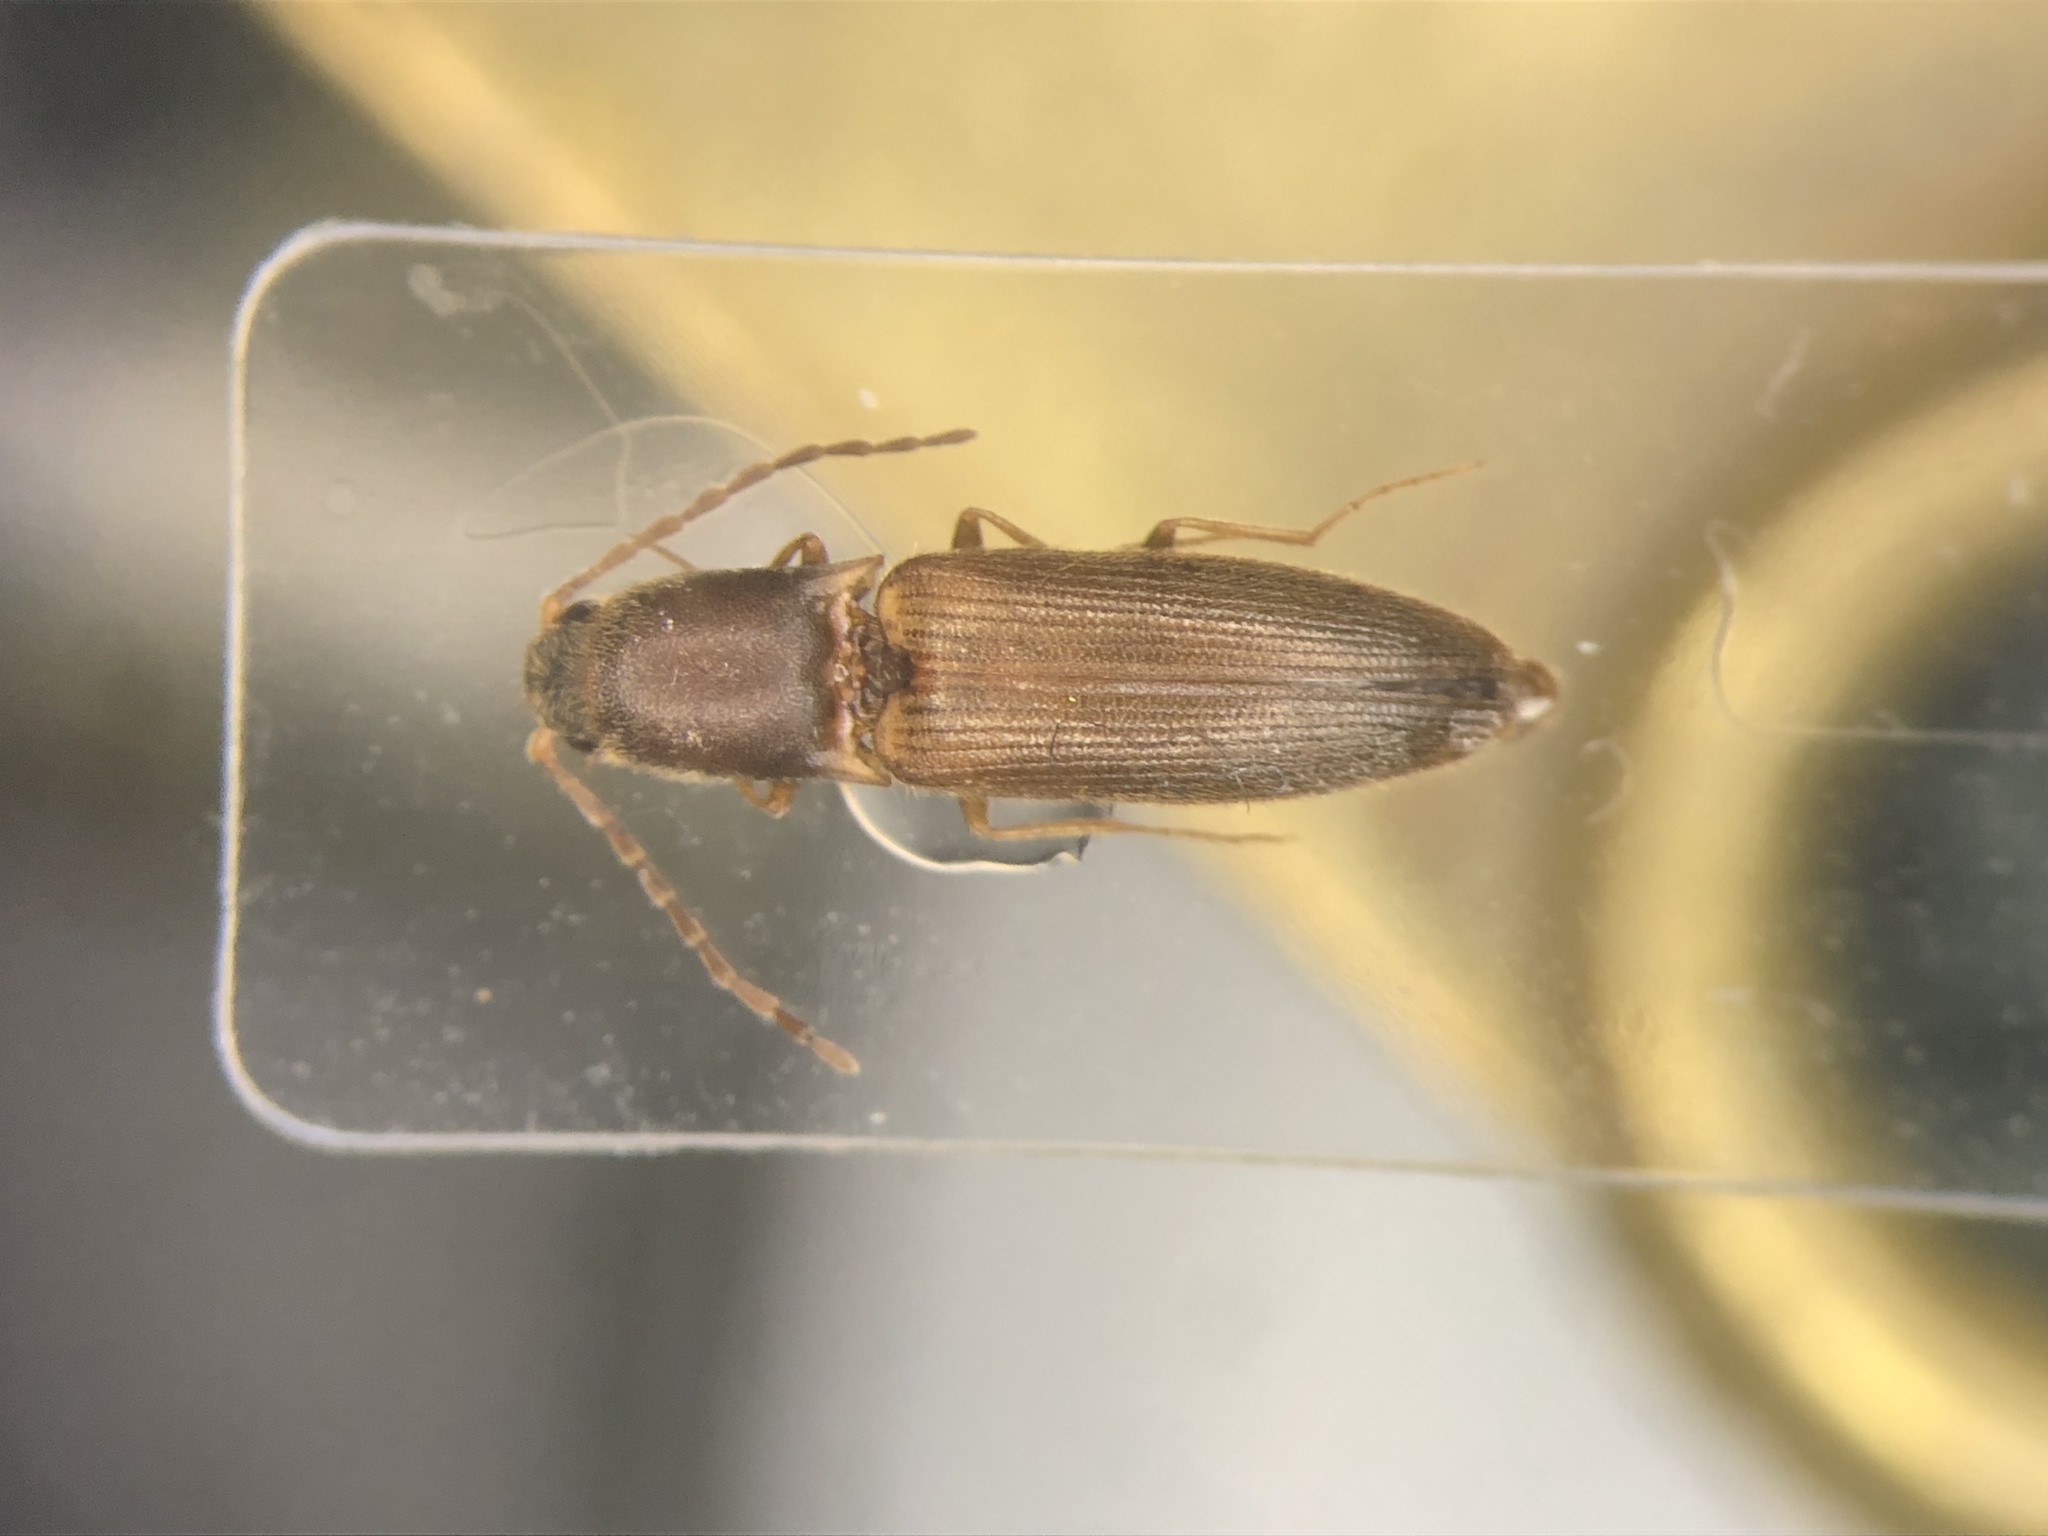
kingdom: Animalia
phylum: Arthropoda
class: Insecta
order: Coleoptera
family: Elateridae
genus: Dolerosomus
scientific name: Dolerosomus silaceus
